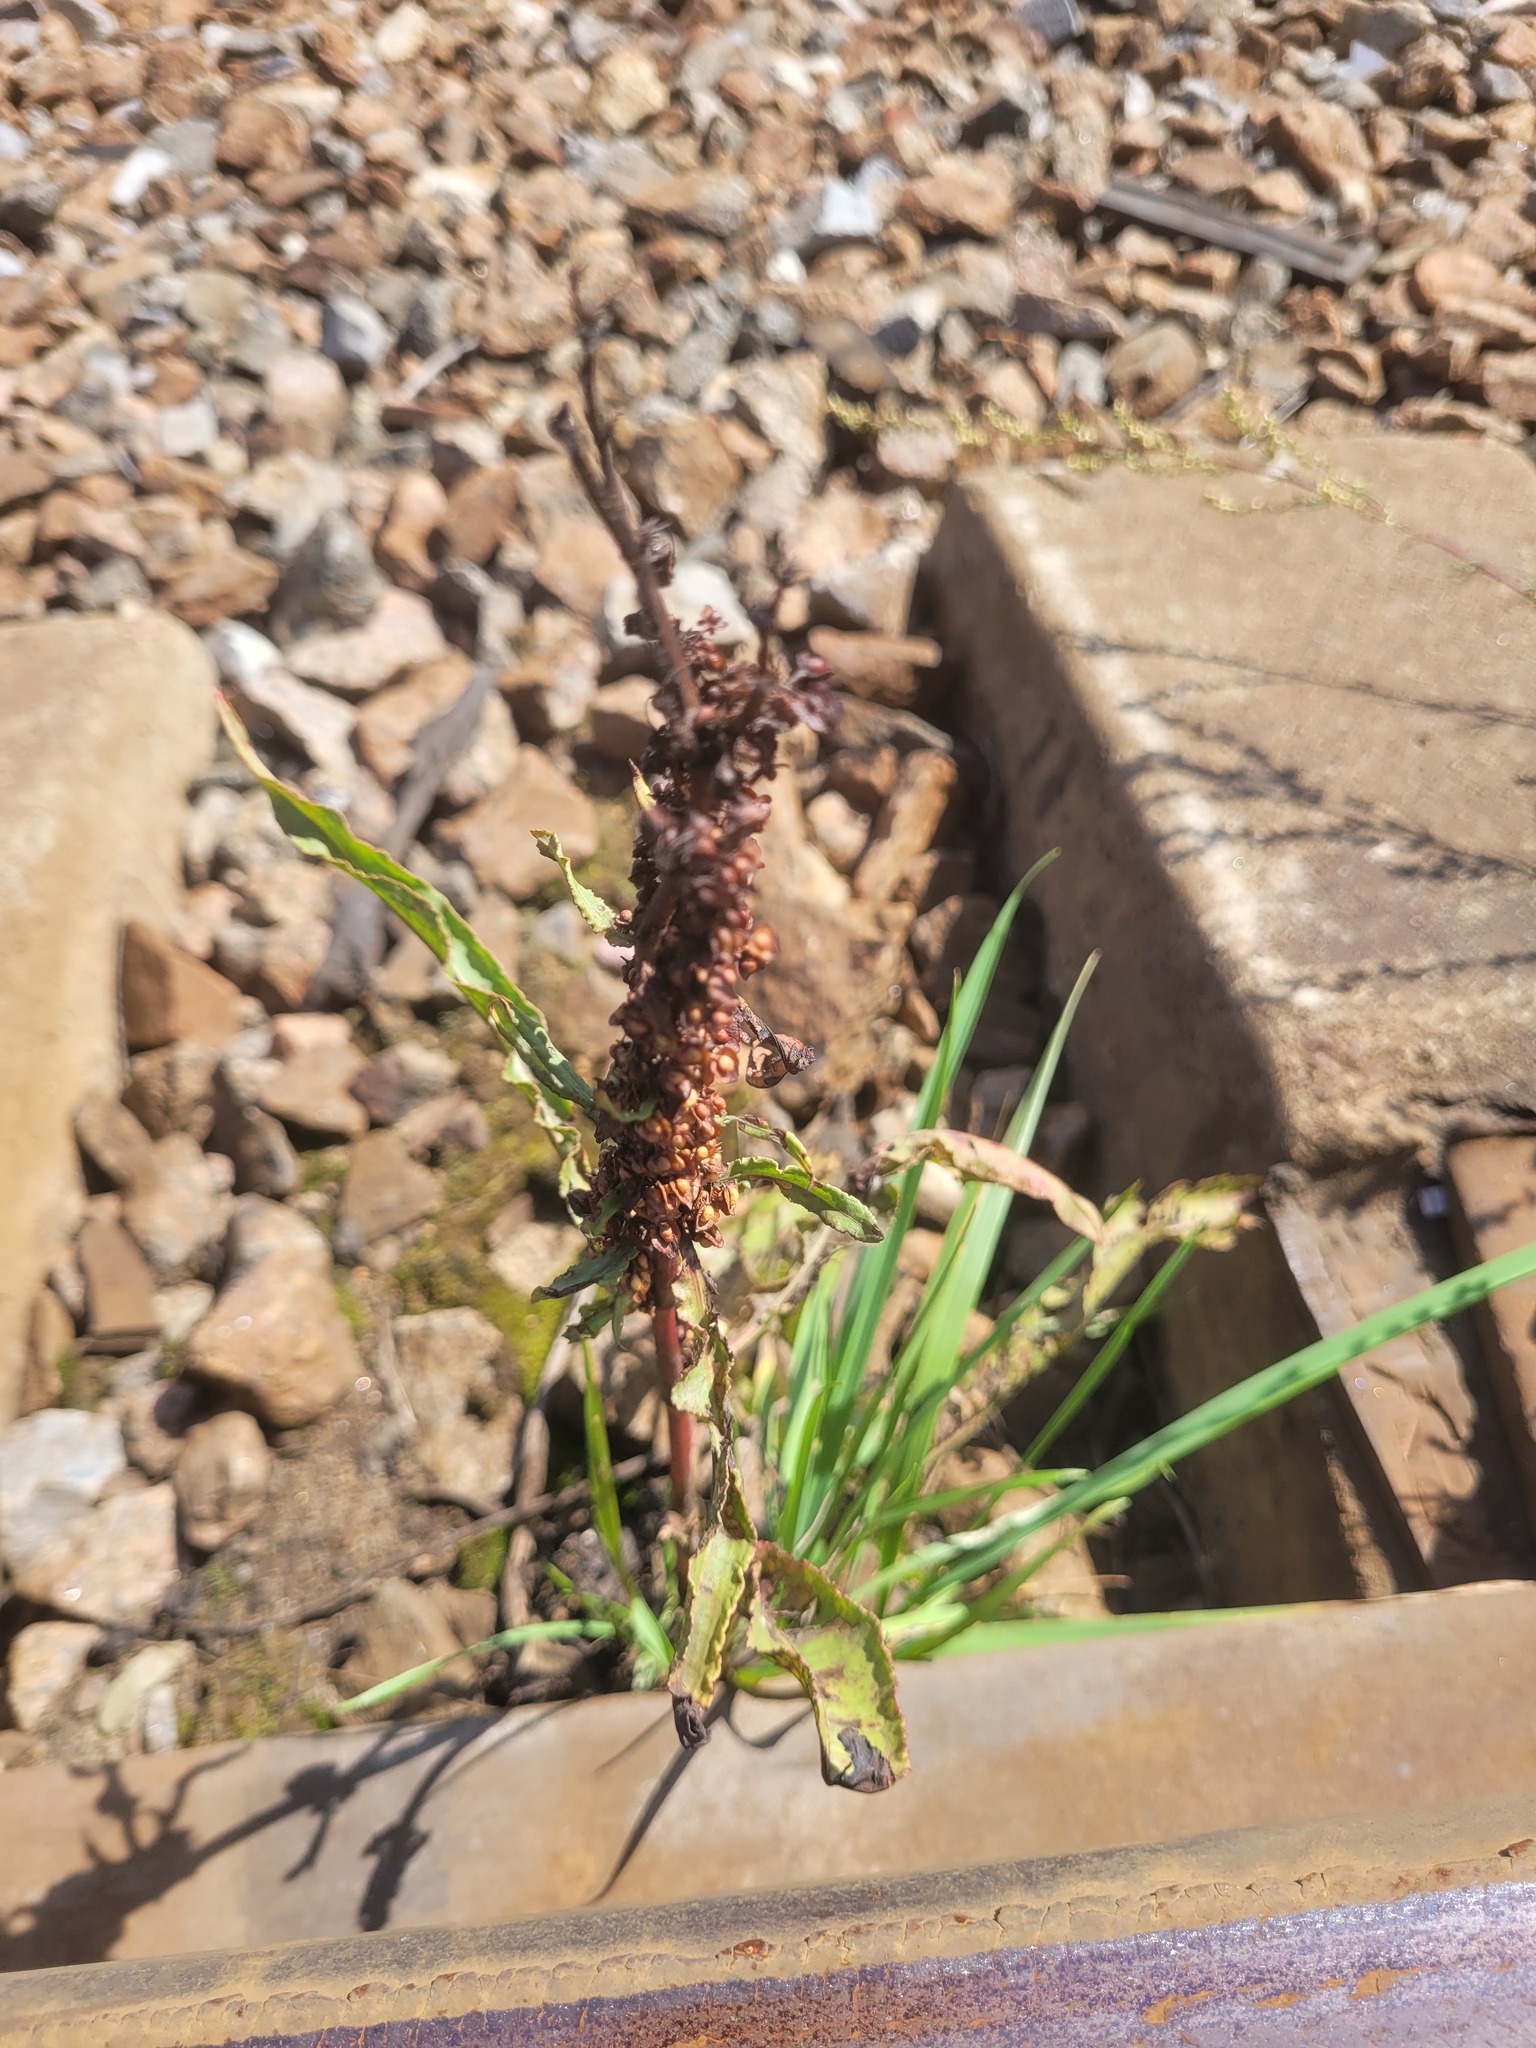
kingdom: Plantae
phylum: Tracheophyta
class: Magnoliopsida
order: Caryophyllales
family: Polygonaceae
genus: Rumex
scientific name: Rumex crispus
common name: Curled dock
